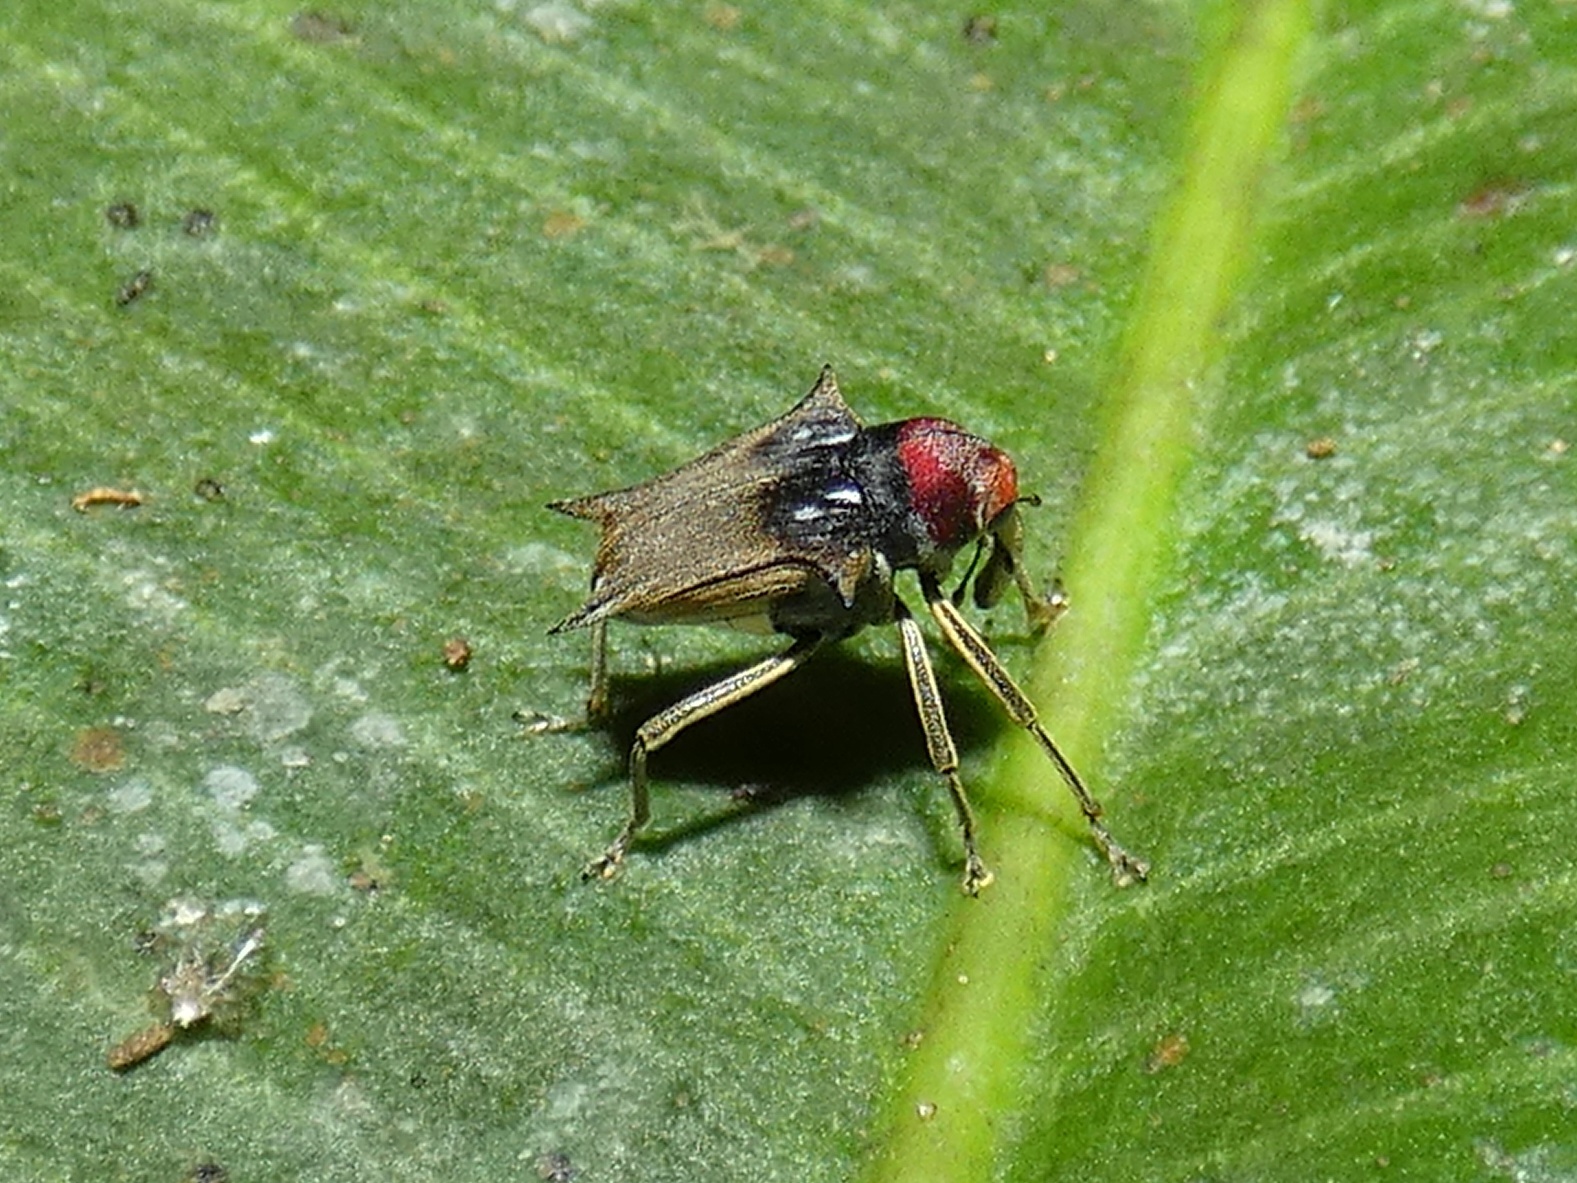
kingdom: Animalia
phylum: Arthropoda
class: Insecta
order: Coleoptera
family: Curculionidae
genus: Pteracanthus
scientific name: Pteracanthus smidtii
